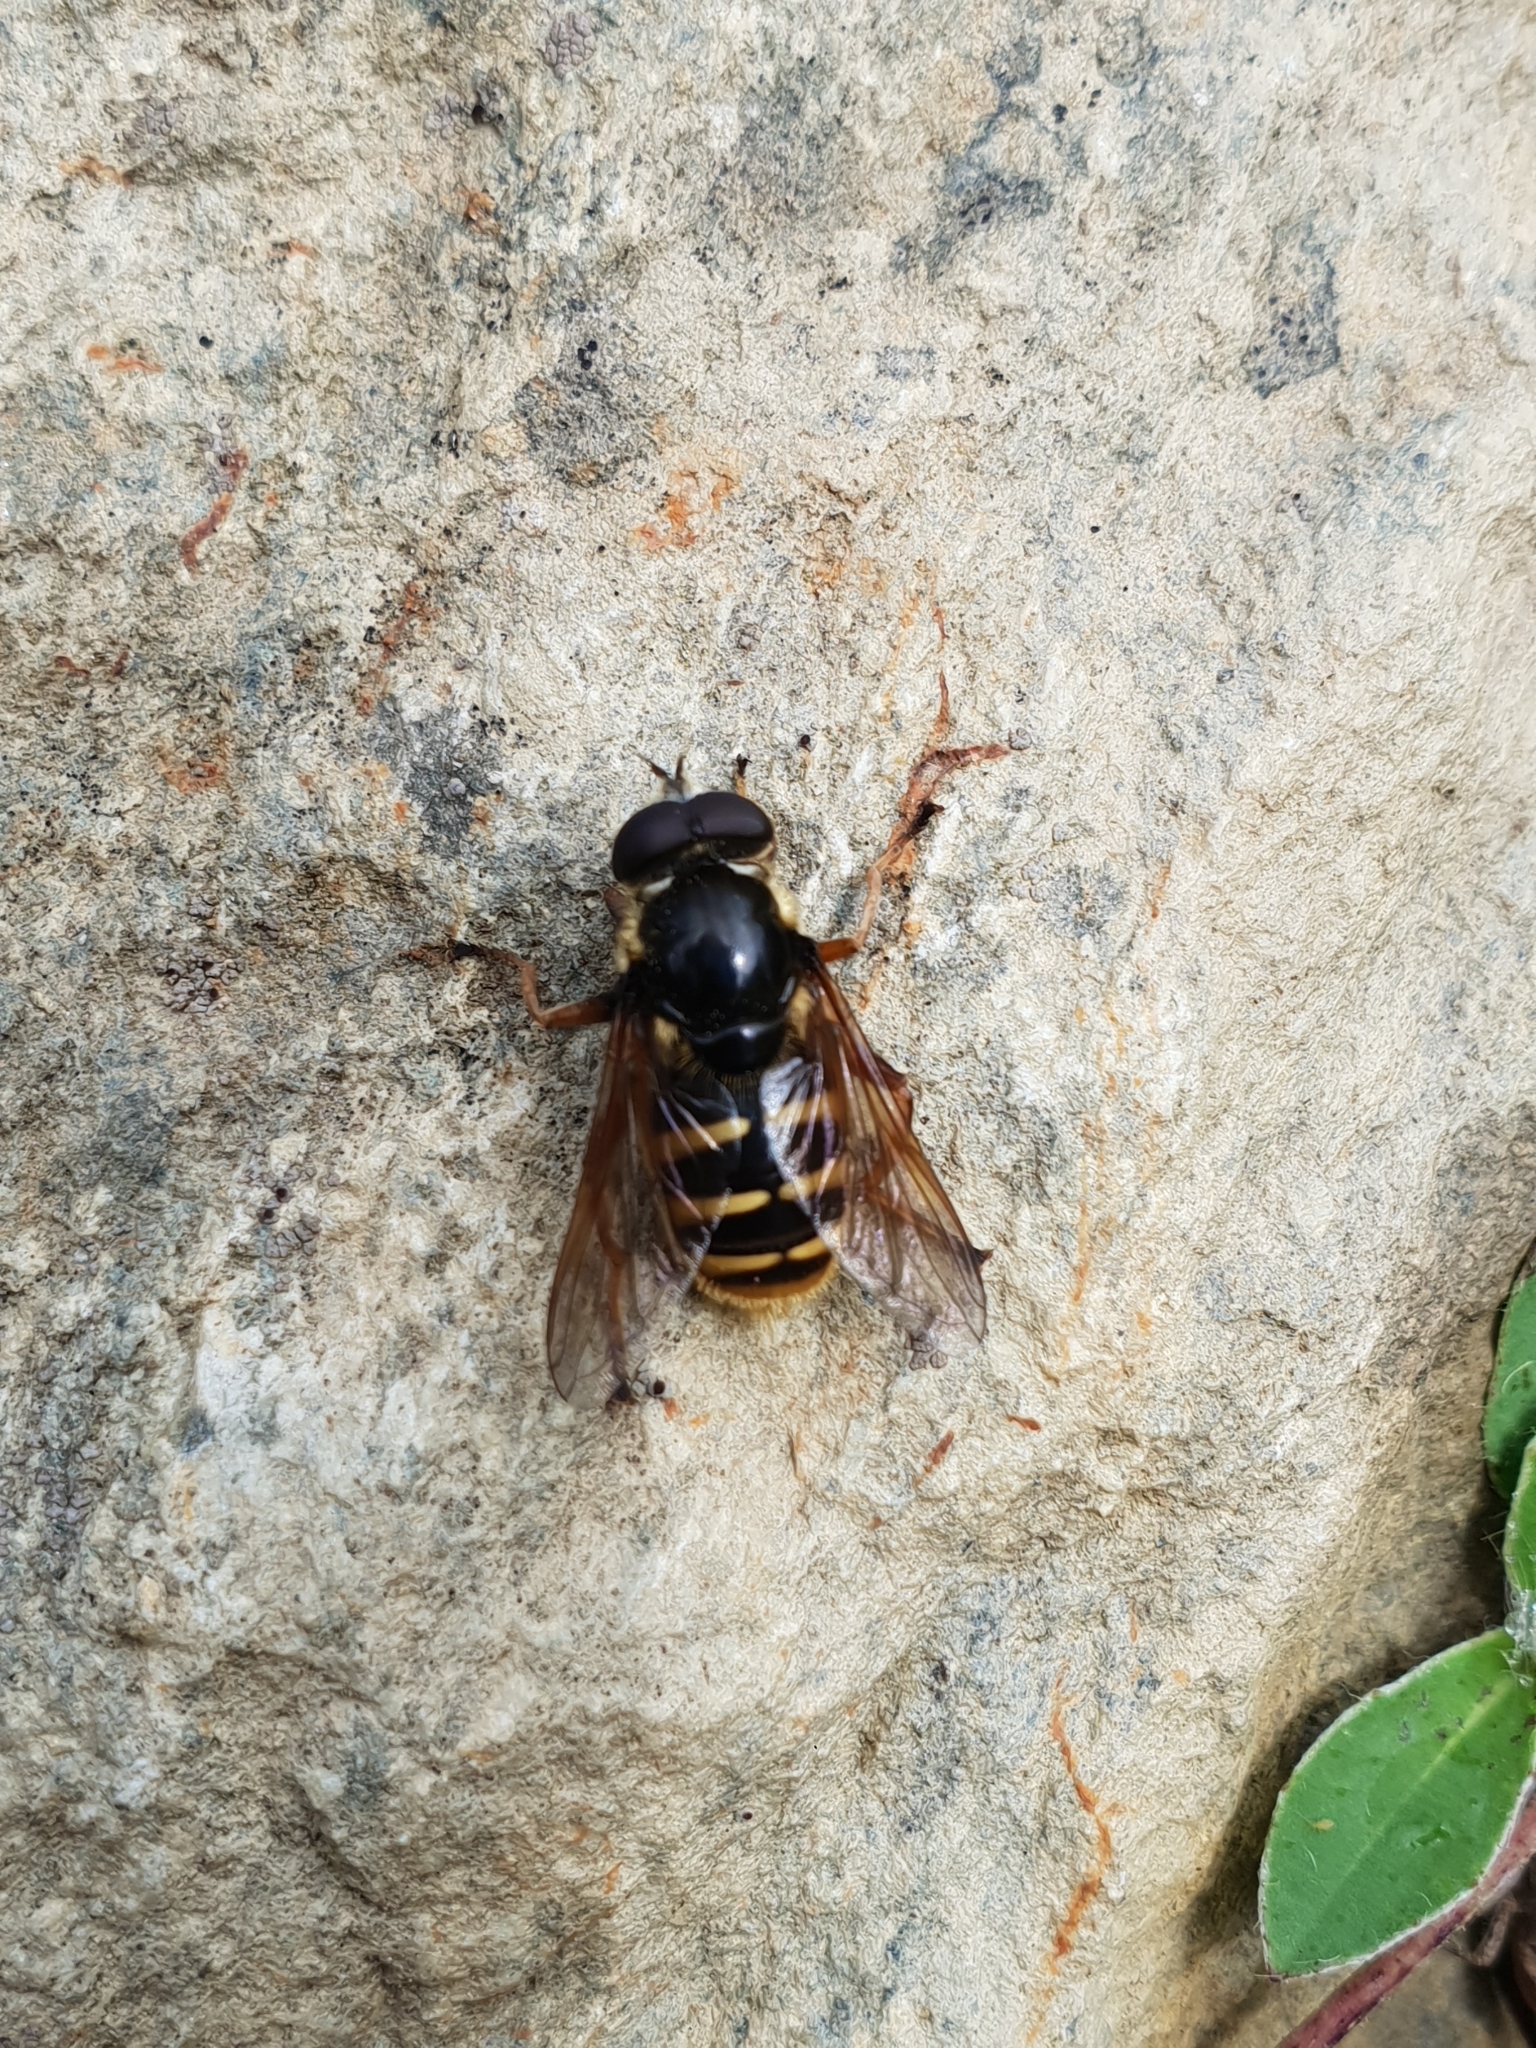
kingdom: Animalia
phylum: Arthropoda
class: Insecta
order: Diptera
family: Syrphidae
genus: Sericomyia
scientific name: Sericomyia silentis
